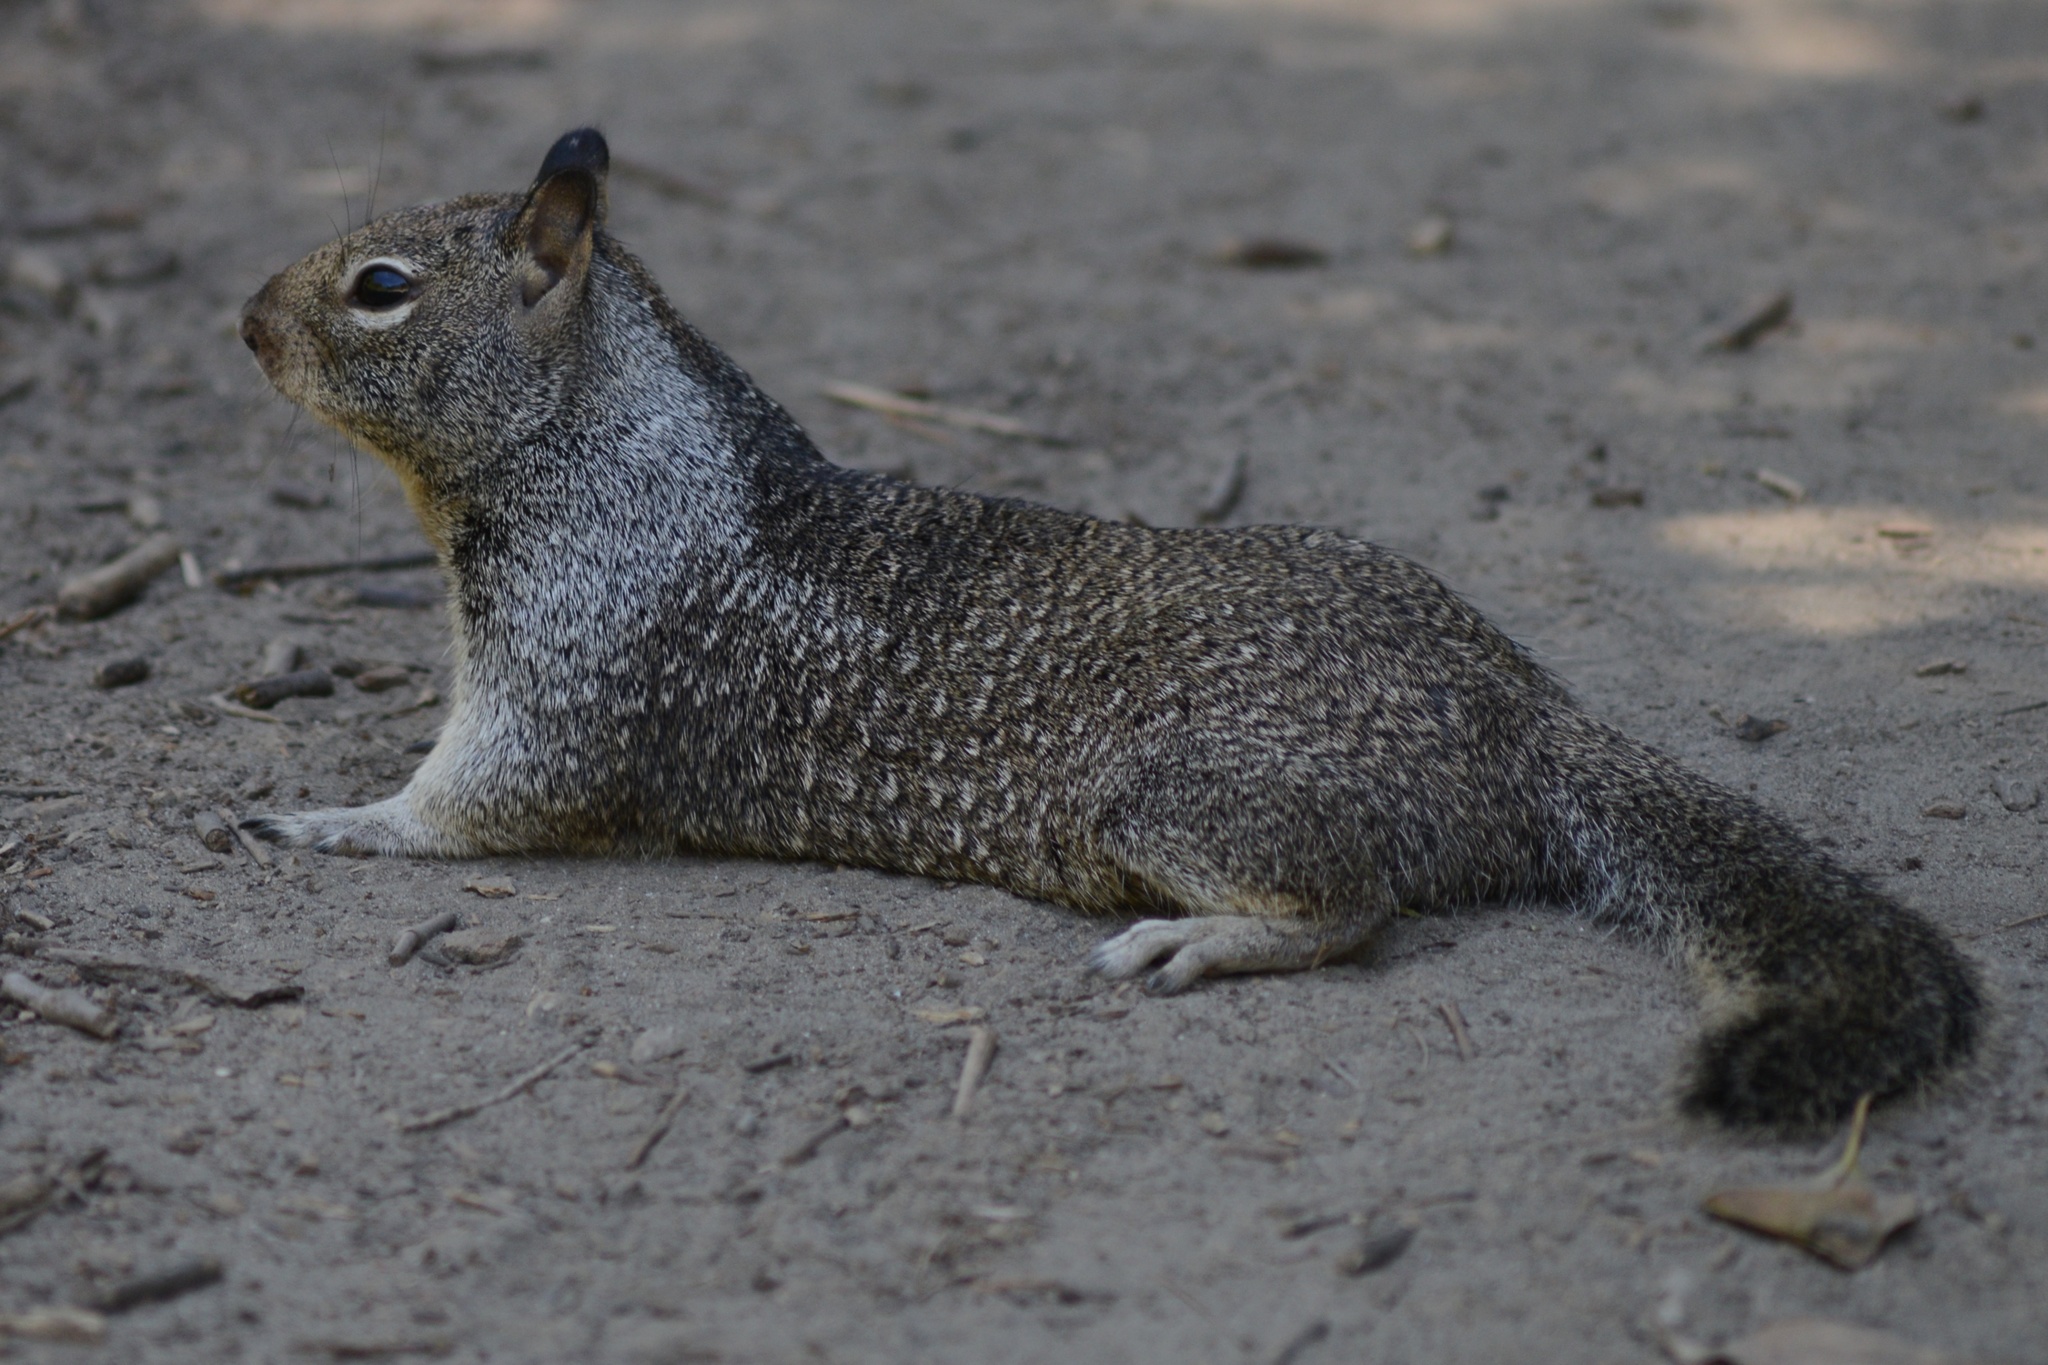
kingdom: Animalia
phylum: Chordata
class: Mammalia
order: Rodentia
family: Sciuridae
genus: Otospermophilus
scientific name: Otospermophilus beecheyi
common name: California ground squirrel
